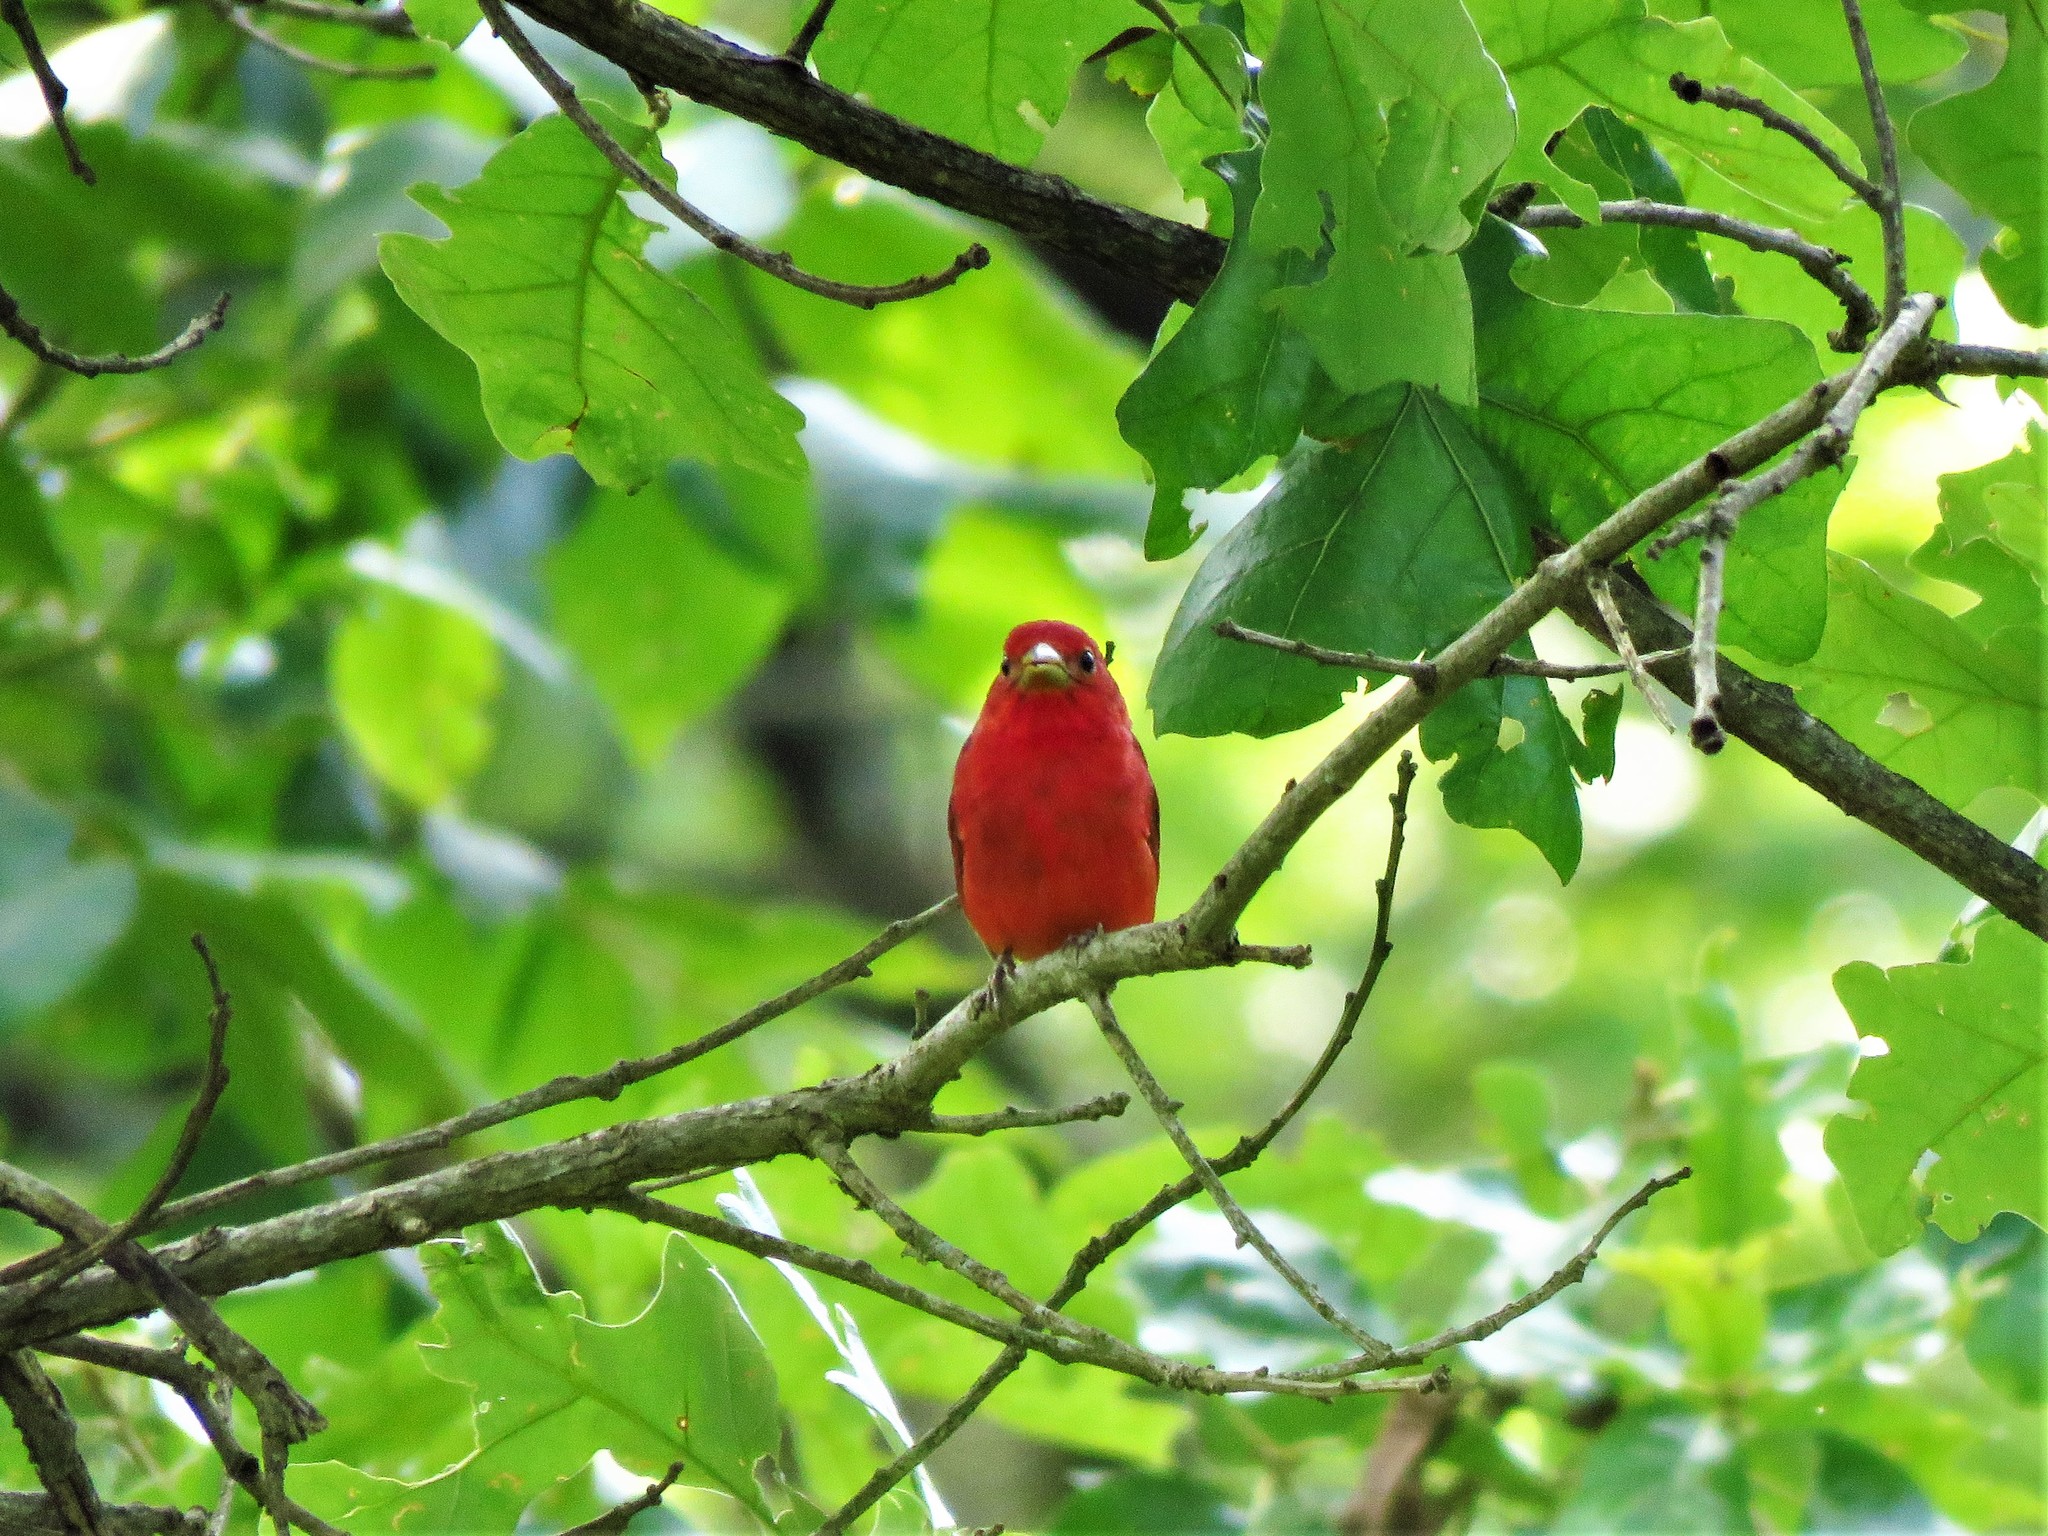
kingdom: Animalia
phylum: Chordata
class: Aves
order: Passeriformes
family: Cardinalidae
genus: Piranga
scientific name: Piranga rubra
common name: Summer tanager
